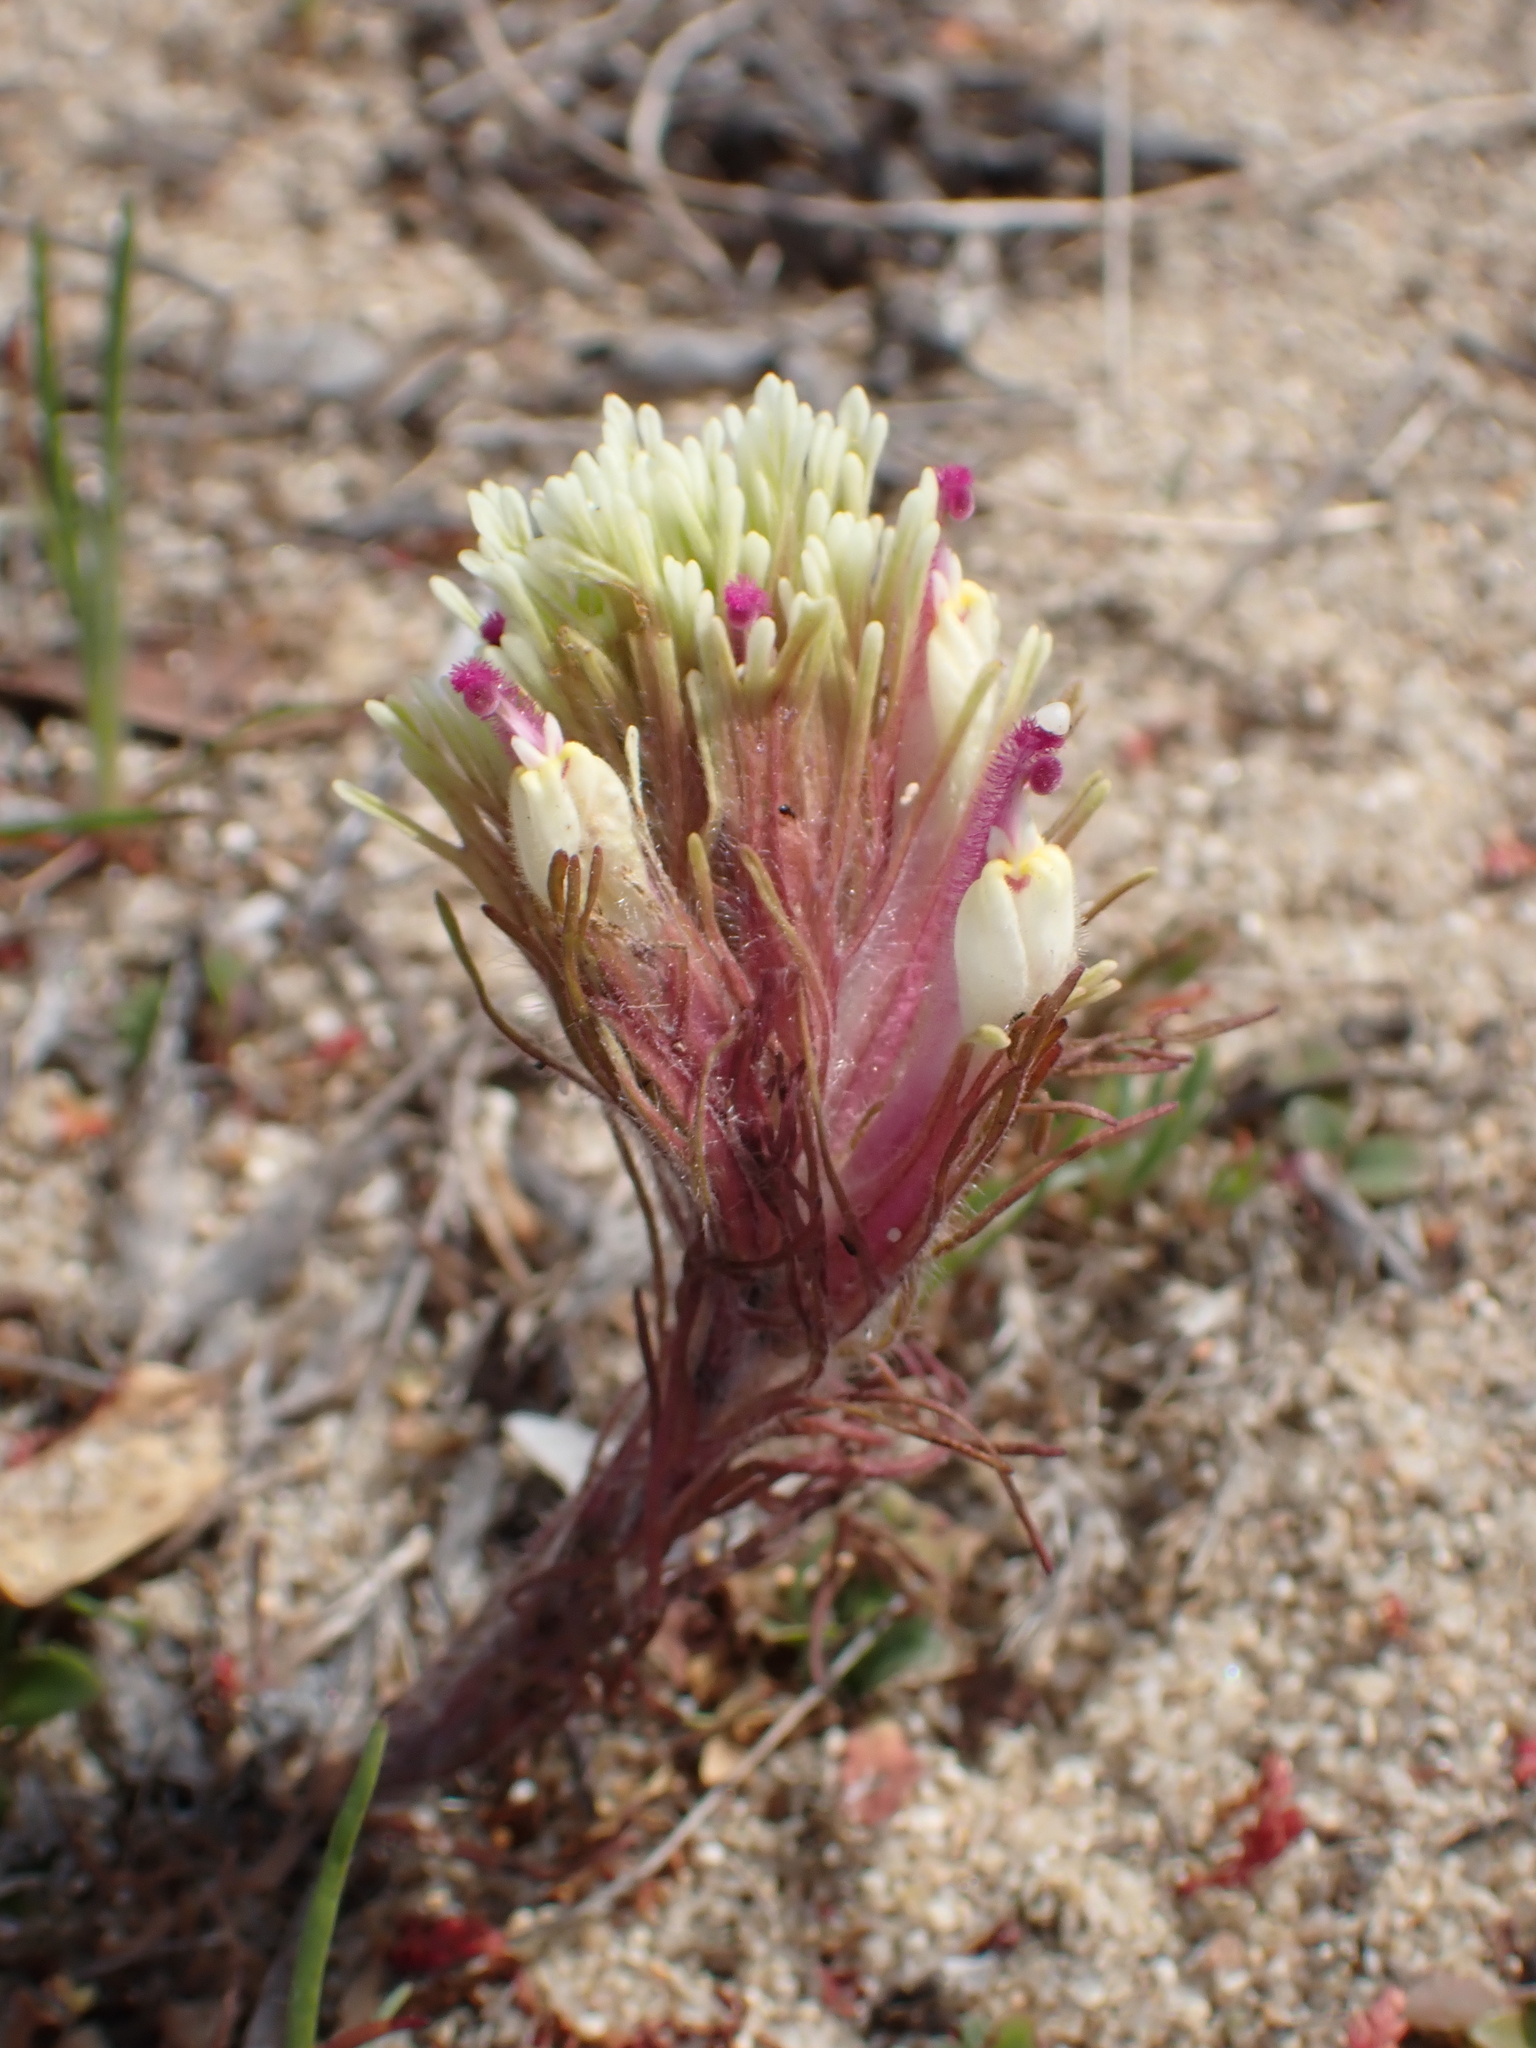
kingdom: Plantae
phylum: Tracheophyta
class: Magnoliopsida
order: Lamiales
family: Orobanchaceae
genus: Castilleja
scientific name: Castilleja exserta
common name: Purple owl-clover
